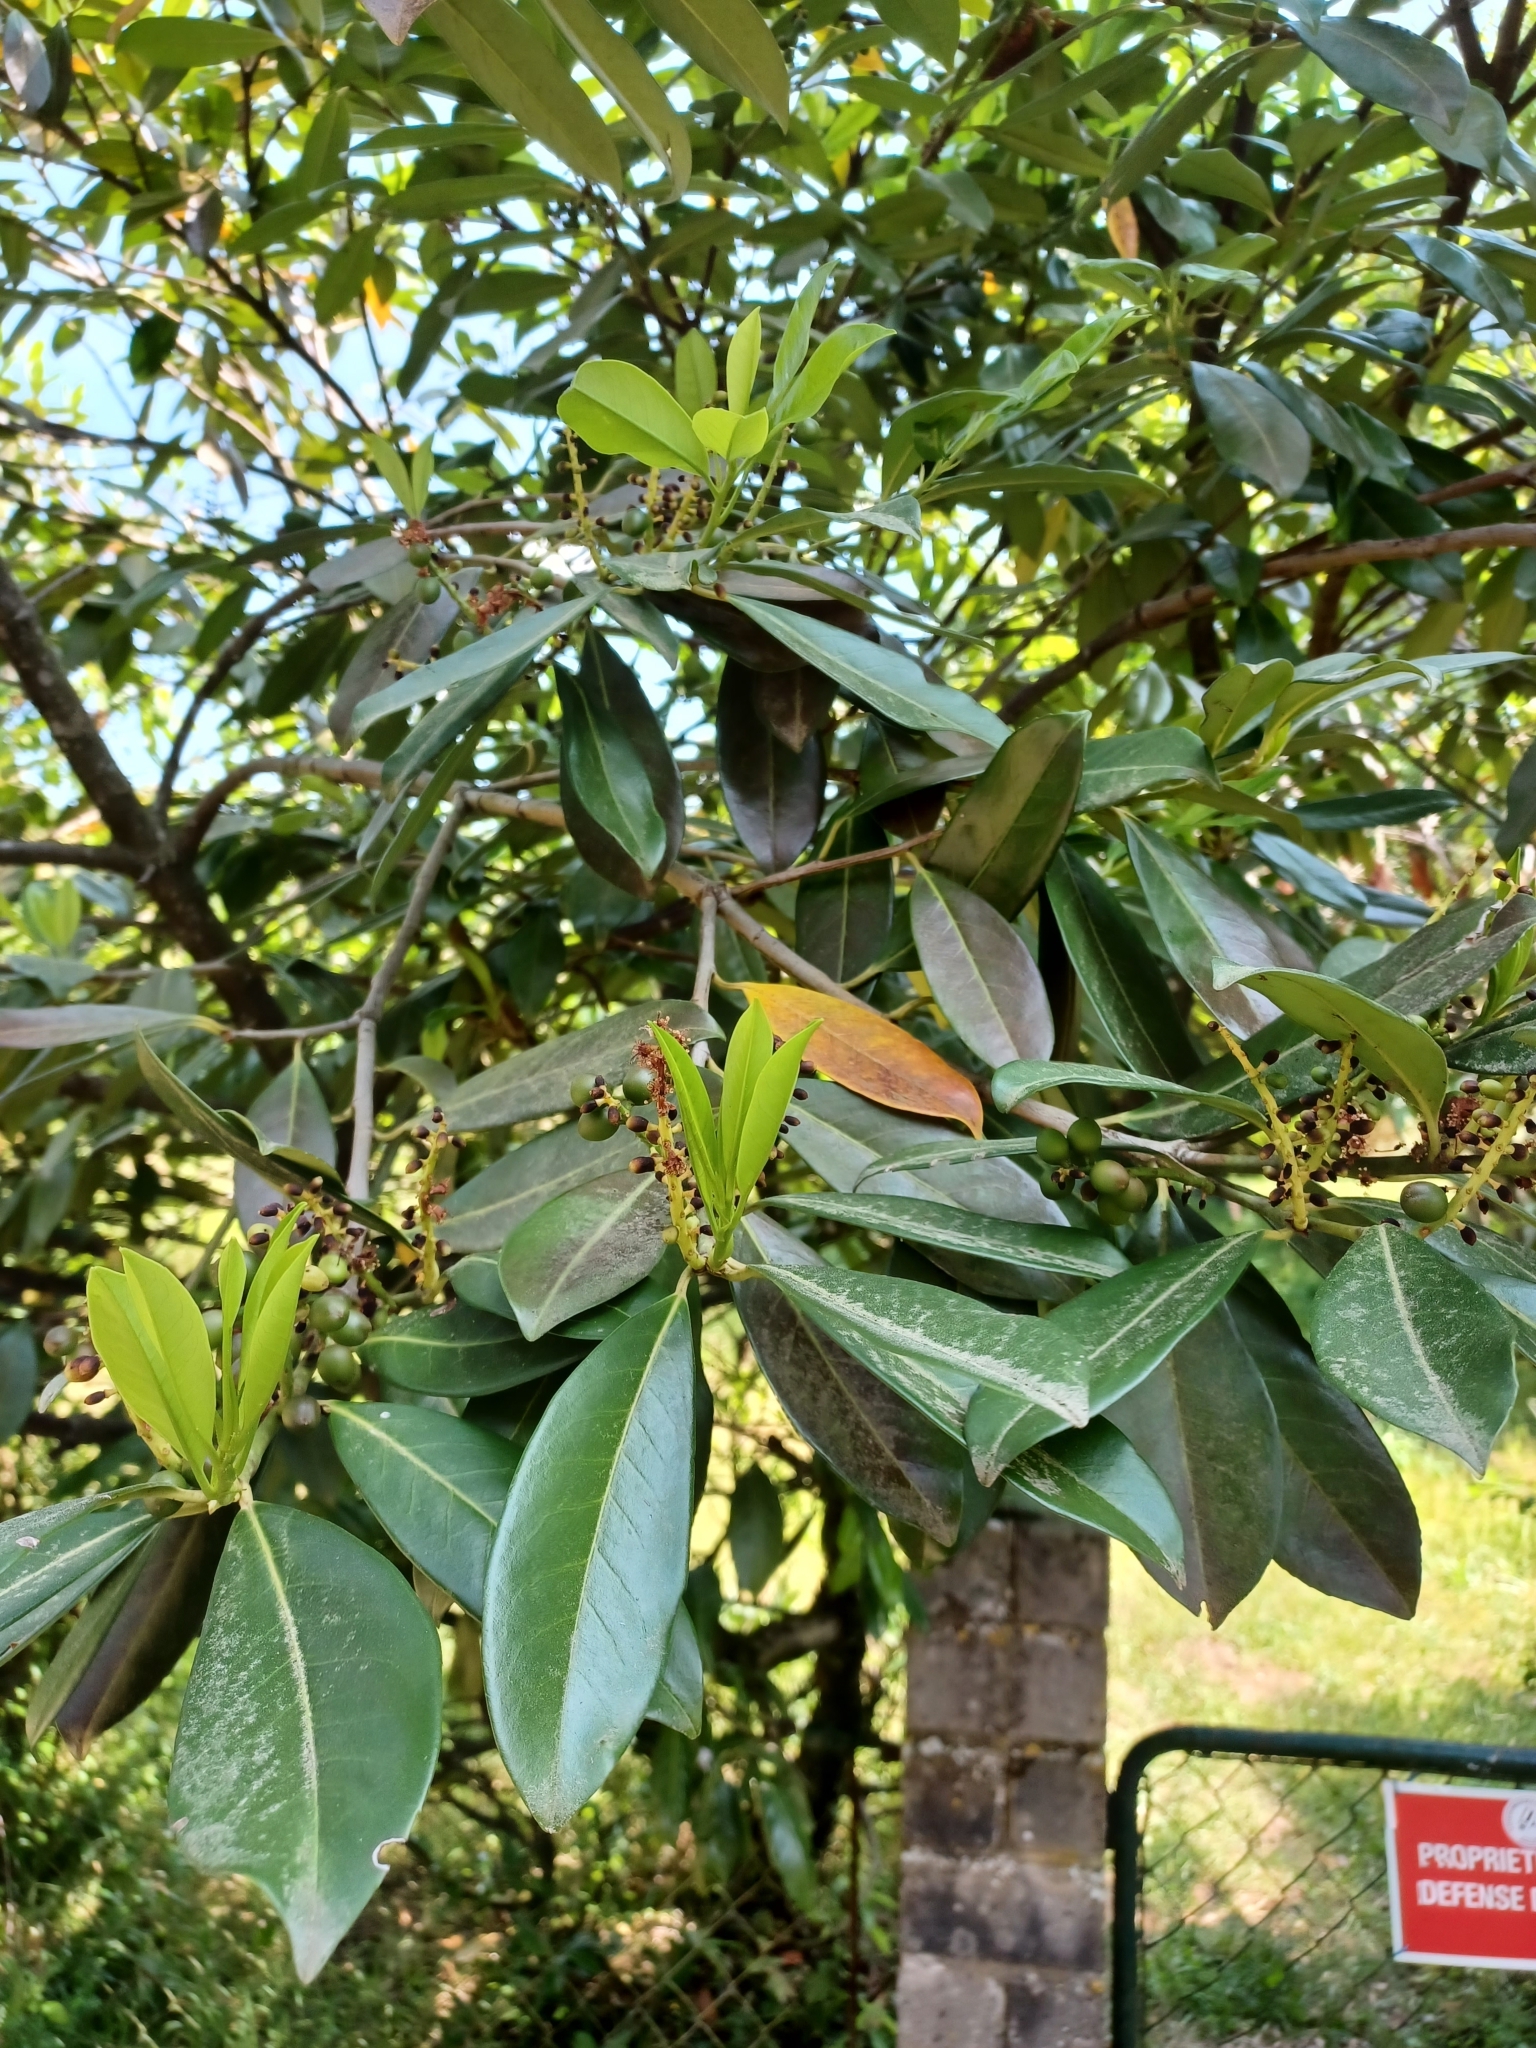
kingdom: Plantae
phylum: Tracheophyta
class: Magnoliopsida
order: Rosales
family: Rosaceae
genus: Prunus
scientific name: Prunus laurocerasus
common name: Cherry laurel
